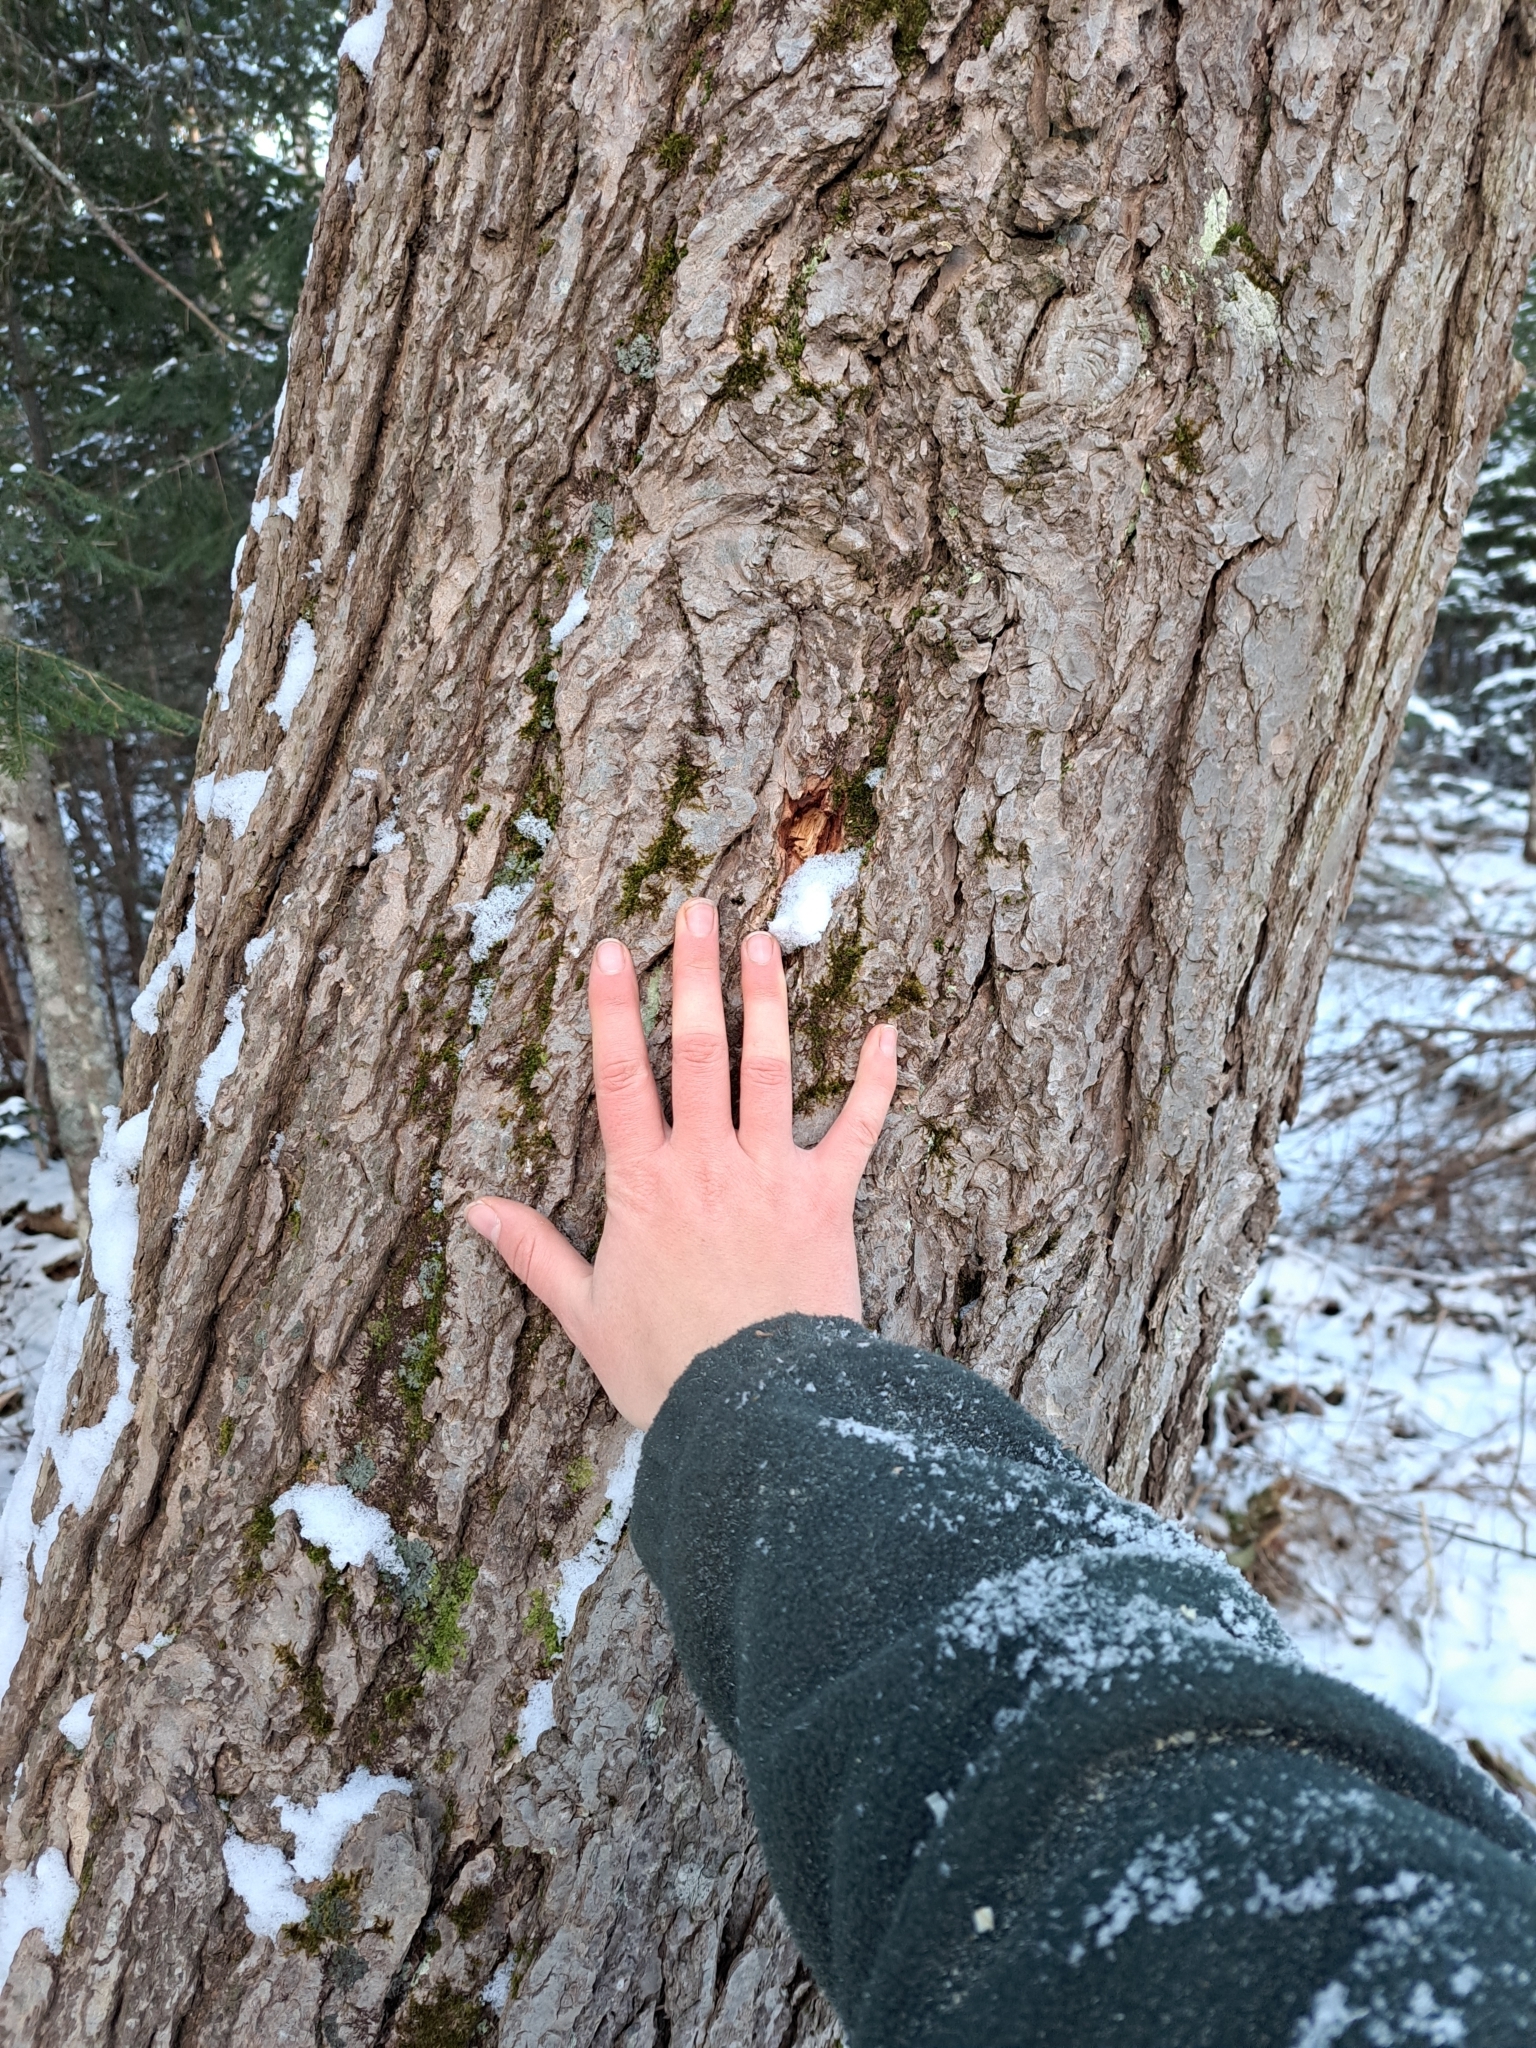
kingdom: Plantae
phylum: Tracheophyta
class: Pinopsida
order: Pinales
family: Pinaceae
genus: Tsuga
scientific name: Tsuga canadensis
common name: Eastern hemlock
